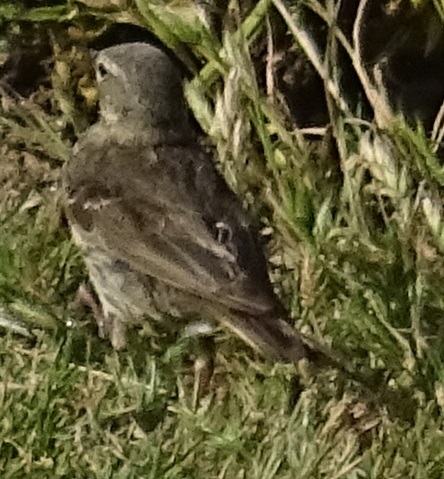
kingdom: Animalia
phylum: Chordata
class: Aves
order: Passeriformes
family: Motacillidae
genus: Anthus
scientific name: Anthus petrosus
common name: Eurasian rock pipit
